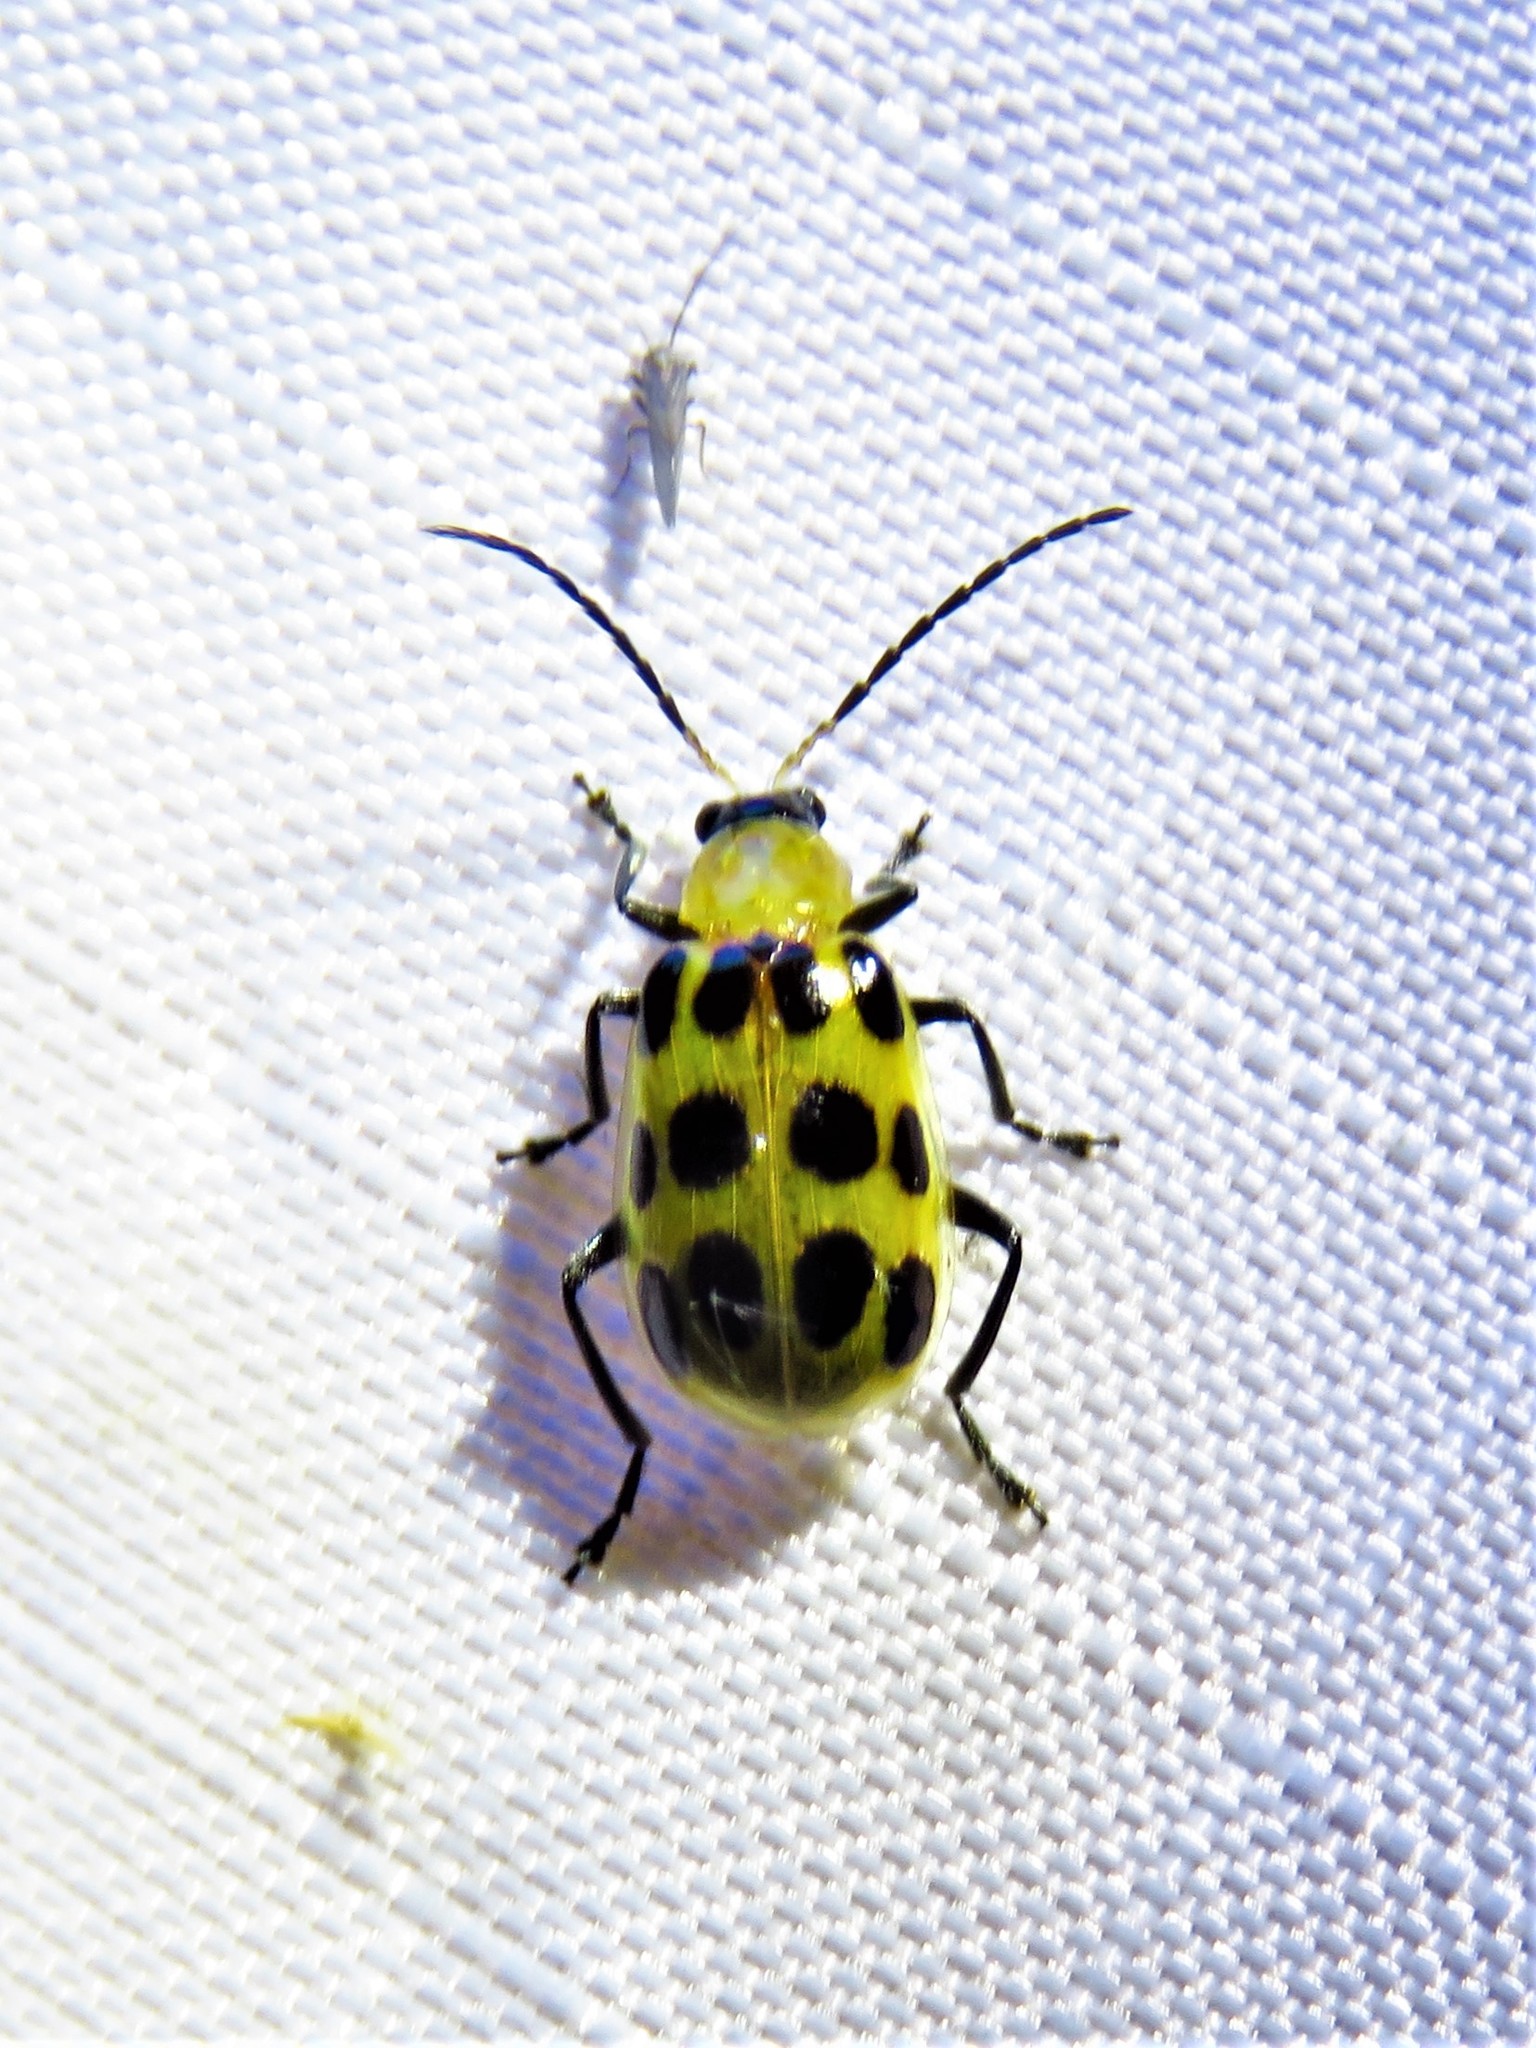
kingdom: Animalia
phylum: Arthropoda
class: Insecta
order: Coleoptera
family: Chrysomelidae
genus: Diabrotica
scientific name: Diabrotica undecimpunctata
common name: Spotted cucumber beetle
